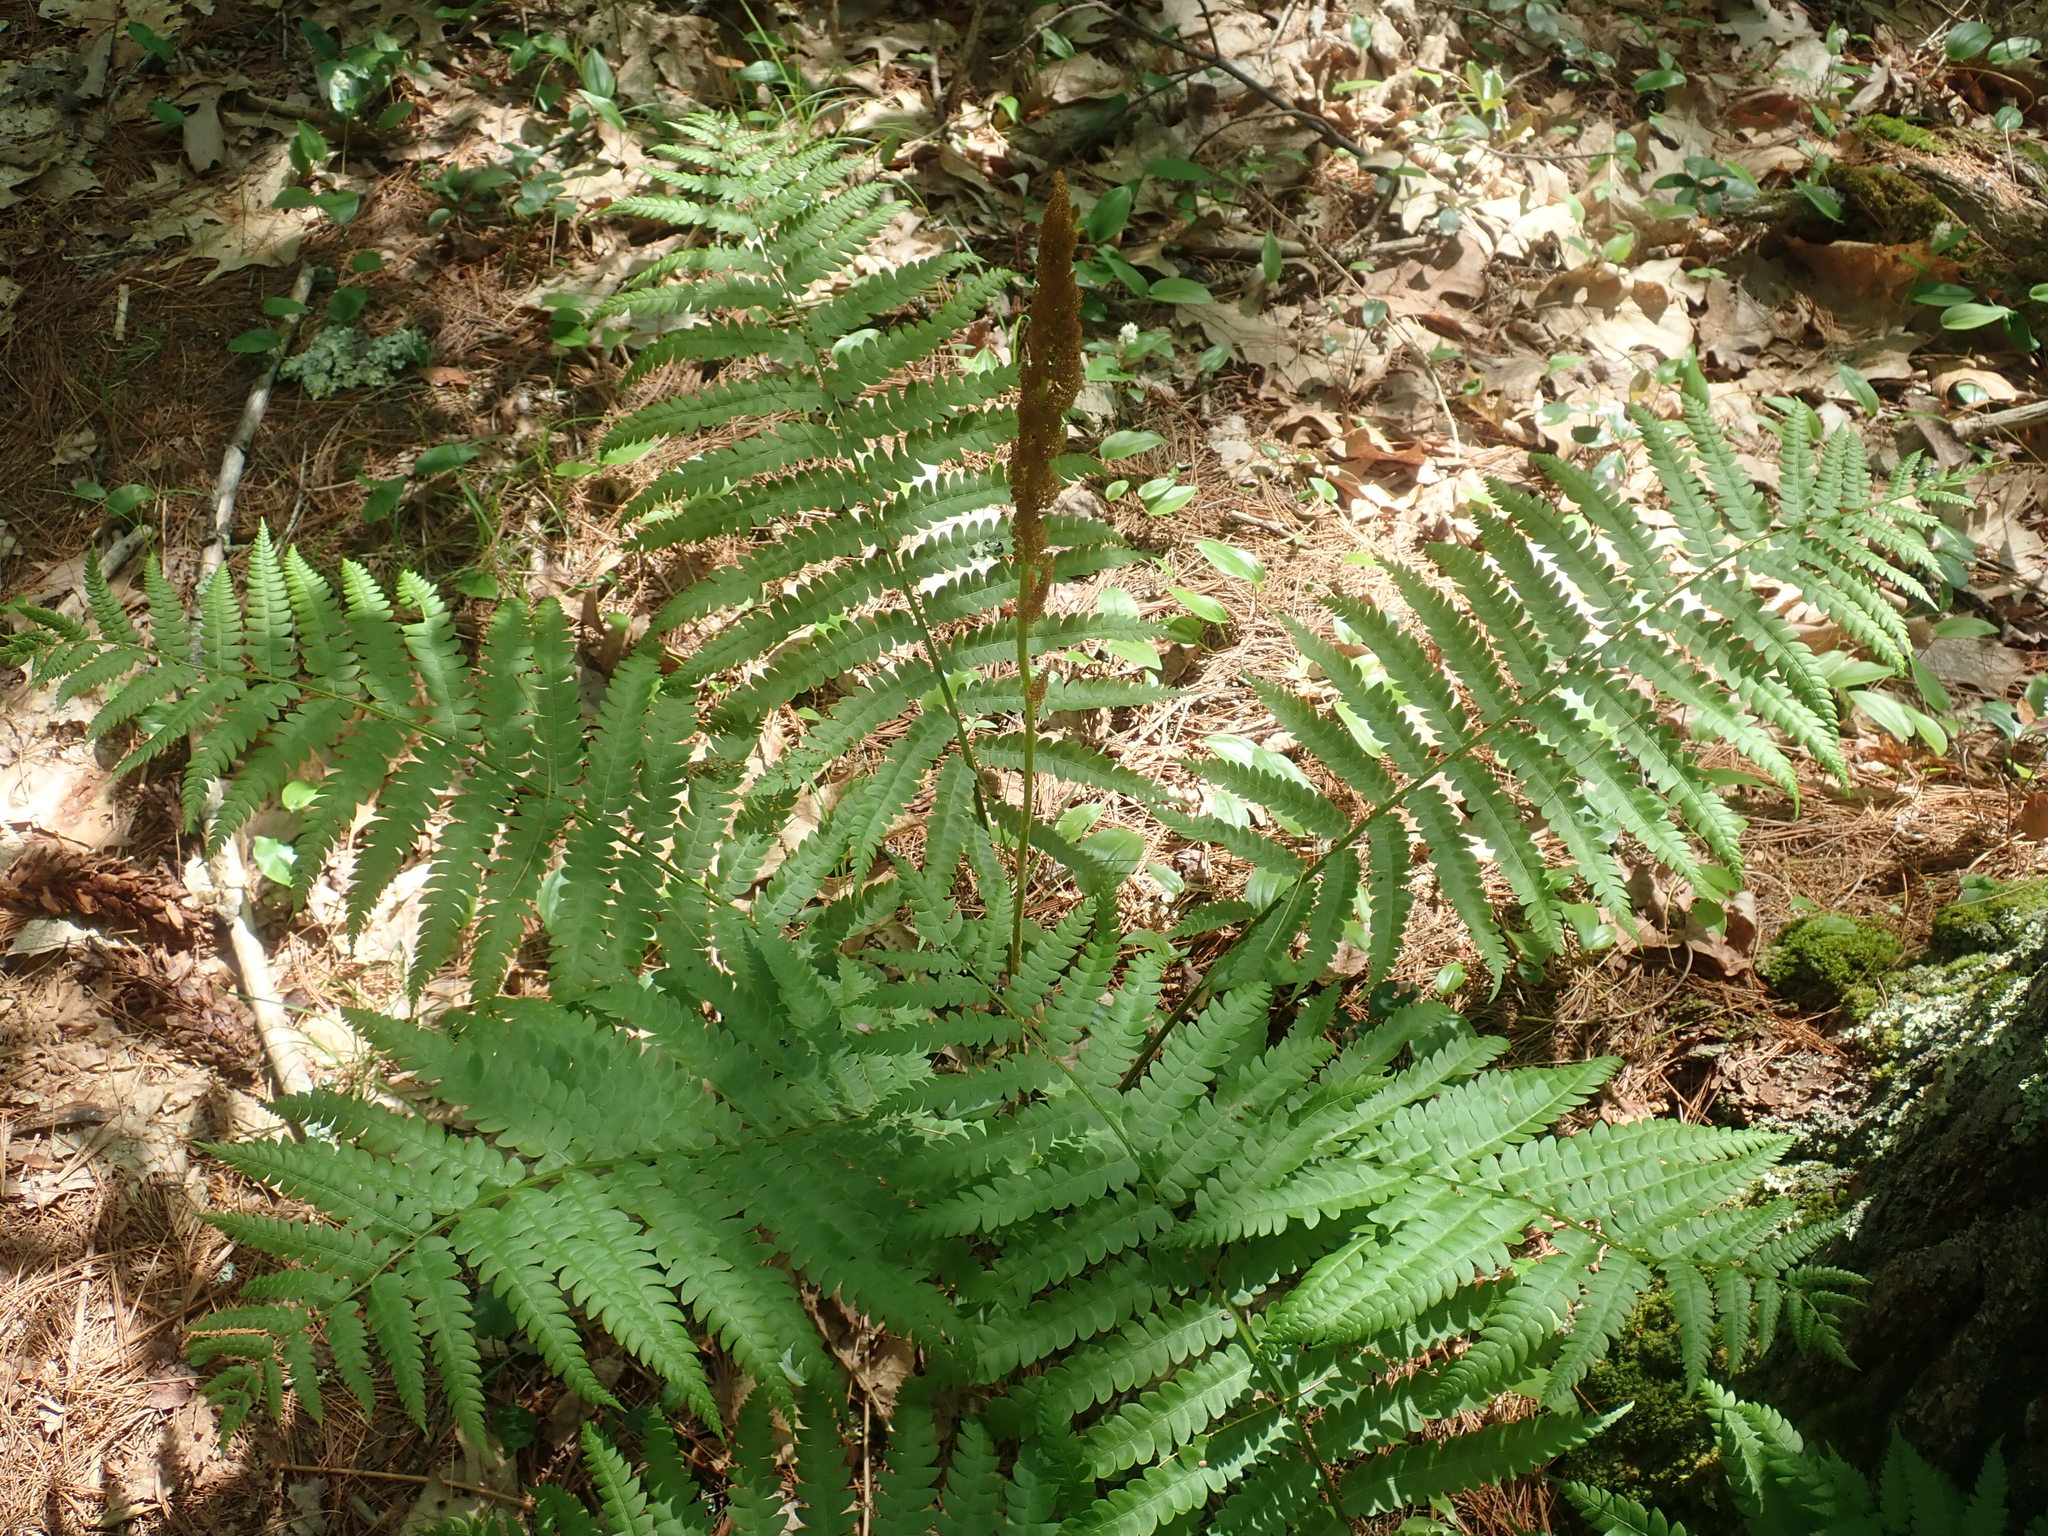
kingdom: Plantae
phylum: Tracheophyta
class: Polypodiopsida
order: Osmundales
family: Osmundaceae
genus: Osmundastrum
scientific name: Osmundastrum cinnamomeum
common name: Cinnamon fern
